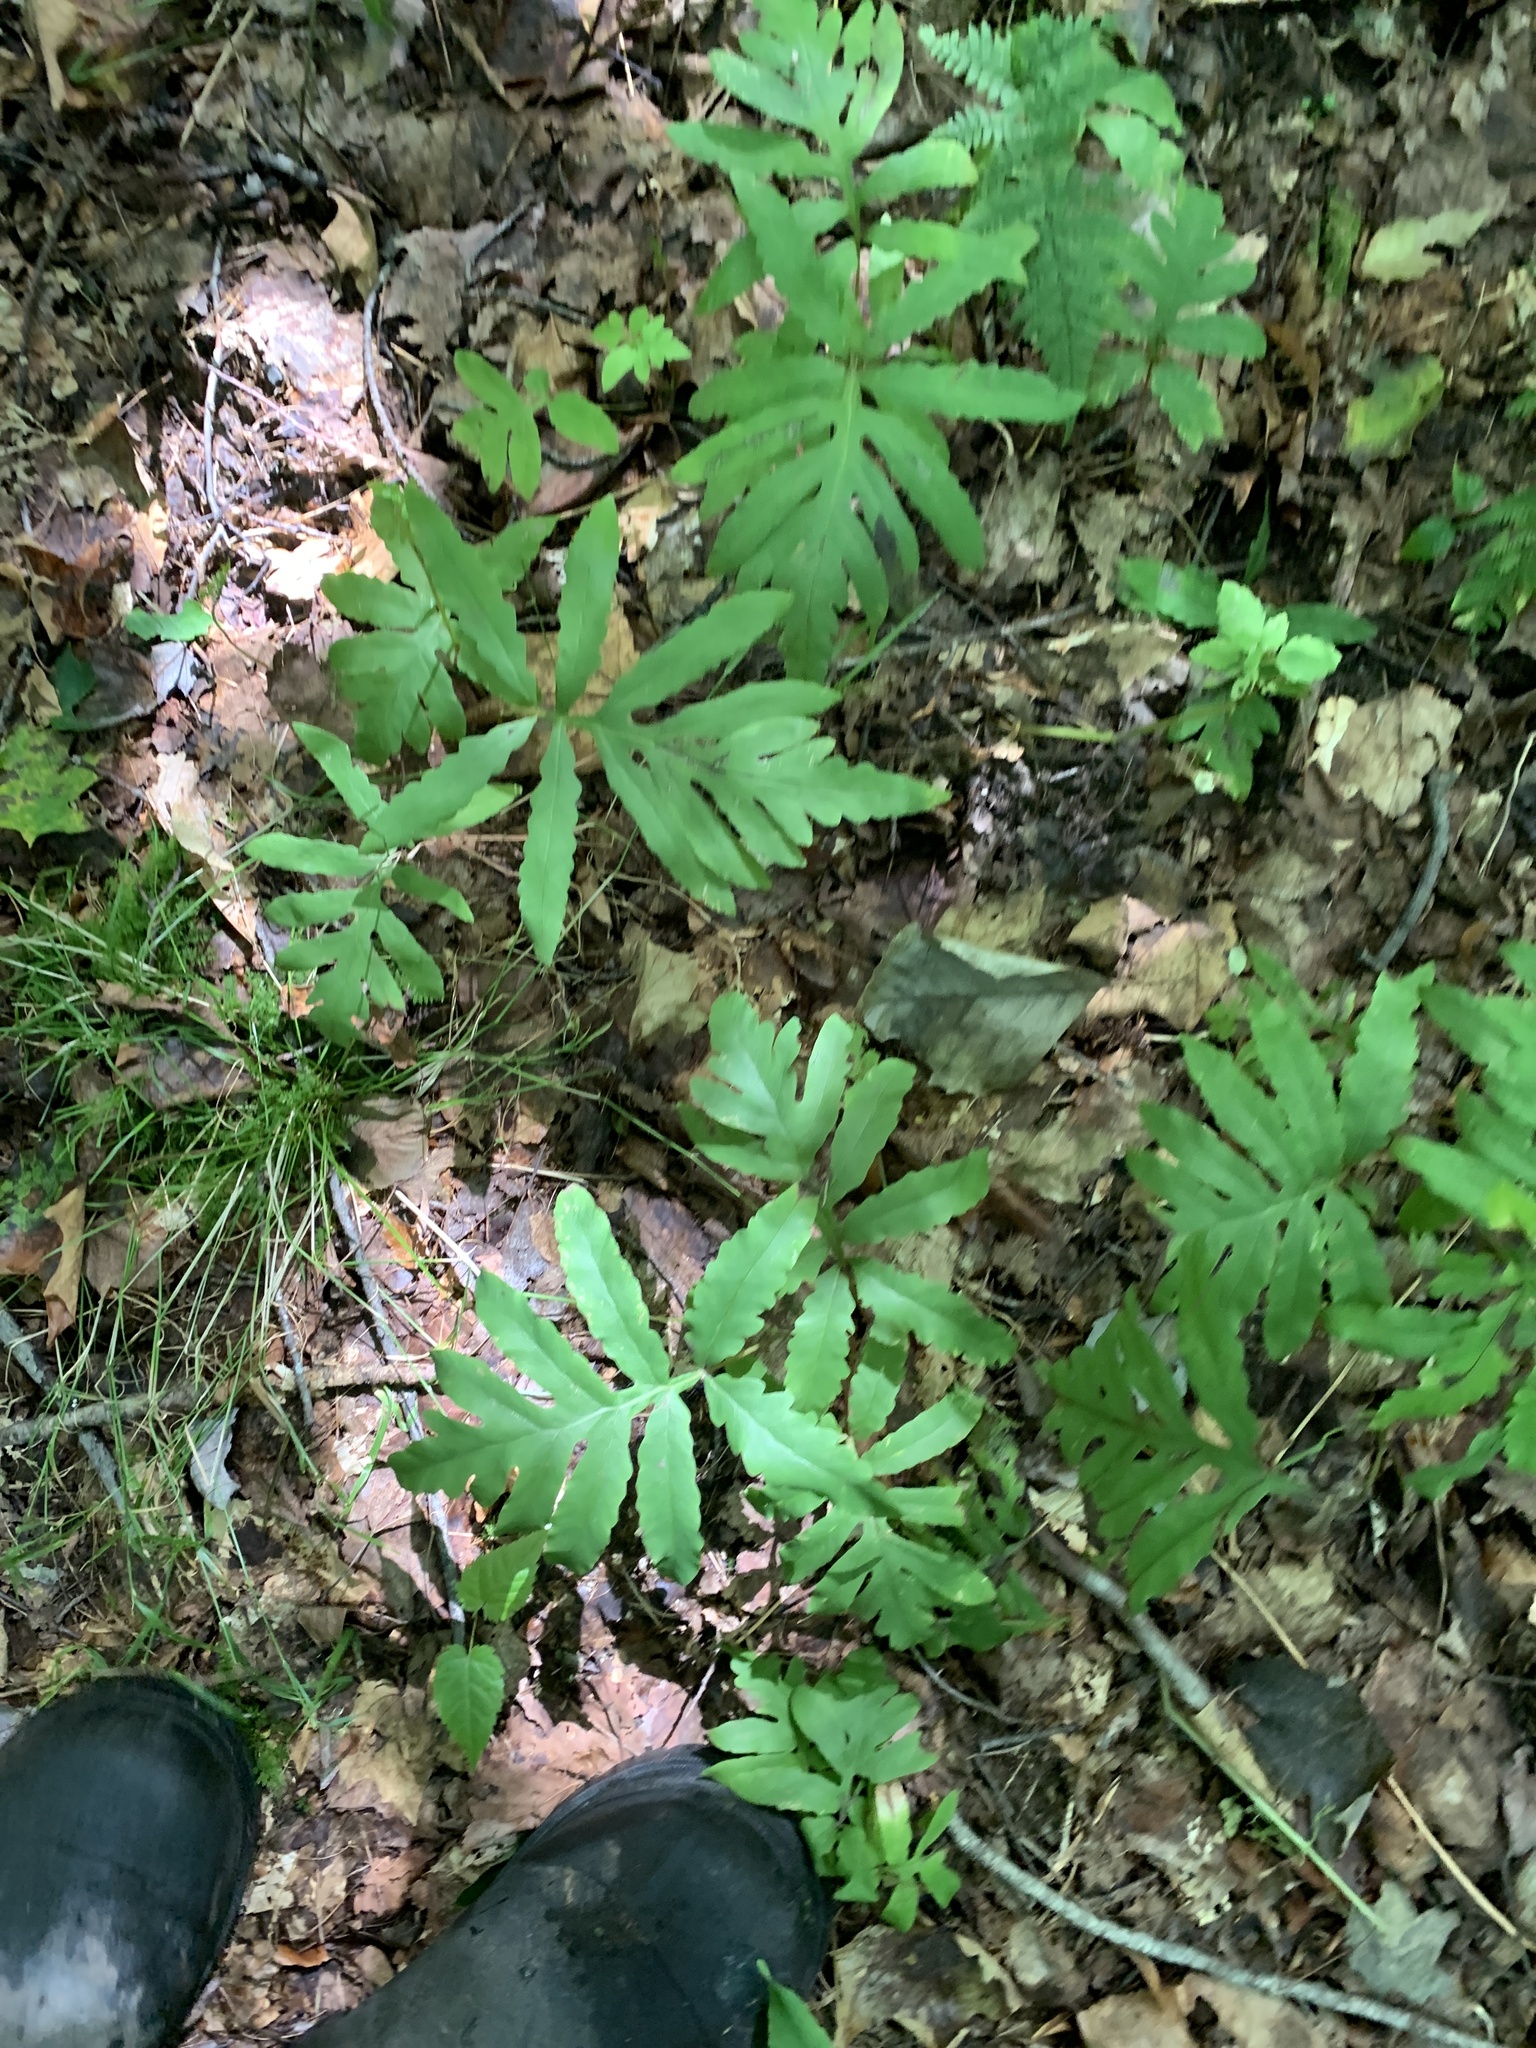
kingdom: Plantae
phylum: Tracheophyta
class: Polypodiopsida
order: Polypodiales
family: Onocleaceae
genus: Onoclea
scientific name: Onoclea sensibilis
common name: Sensitive fern
